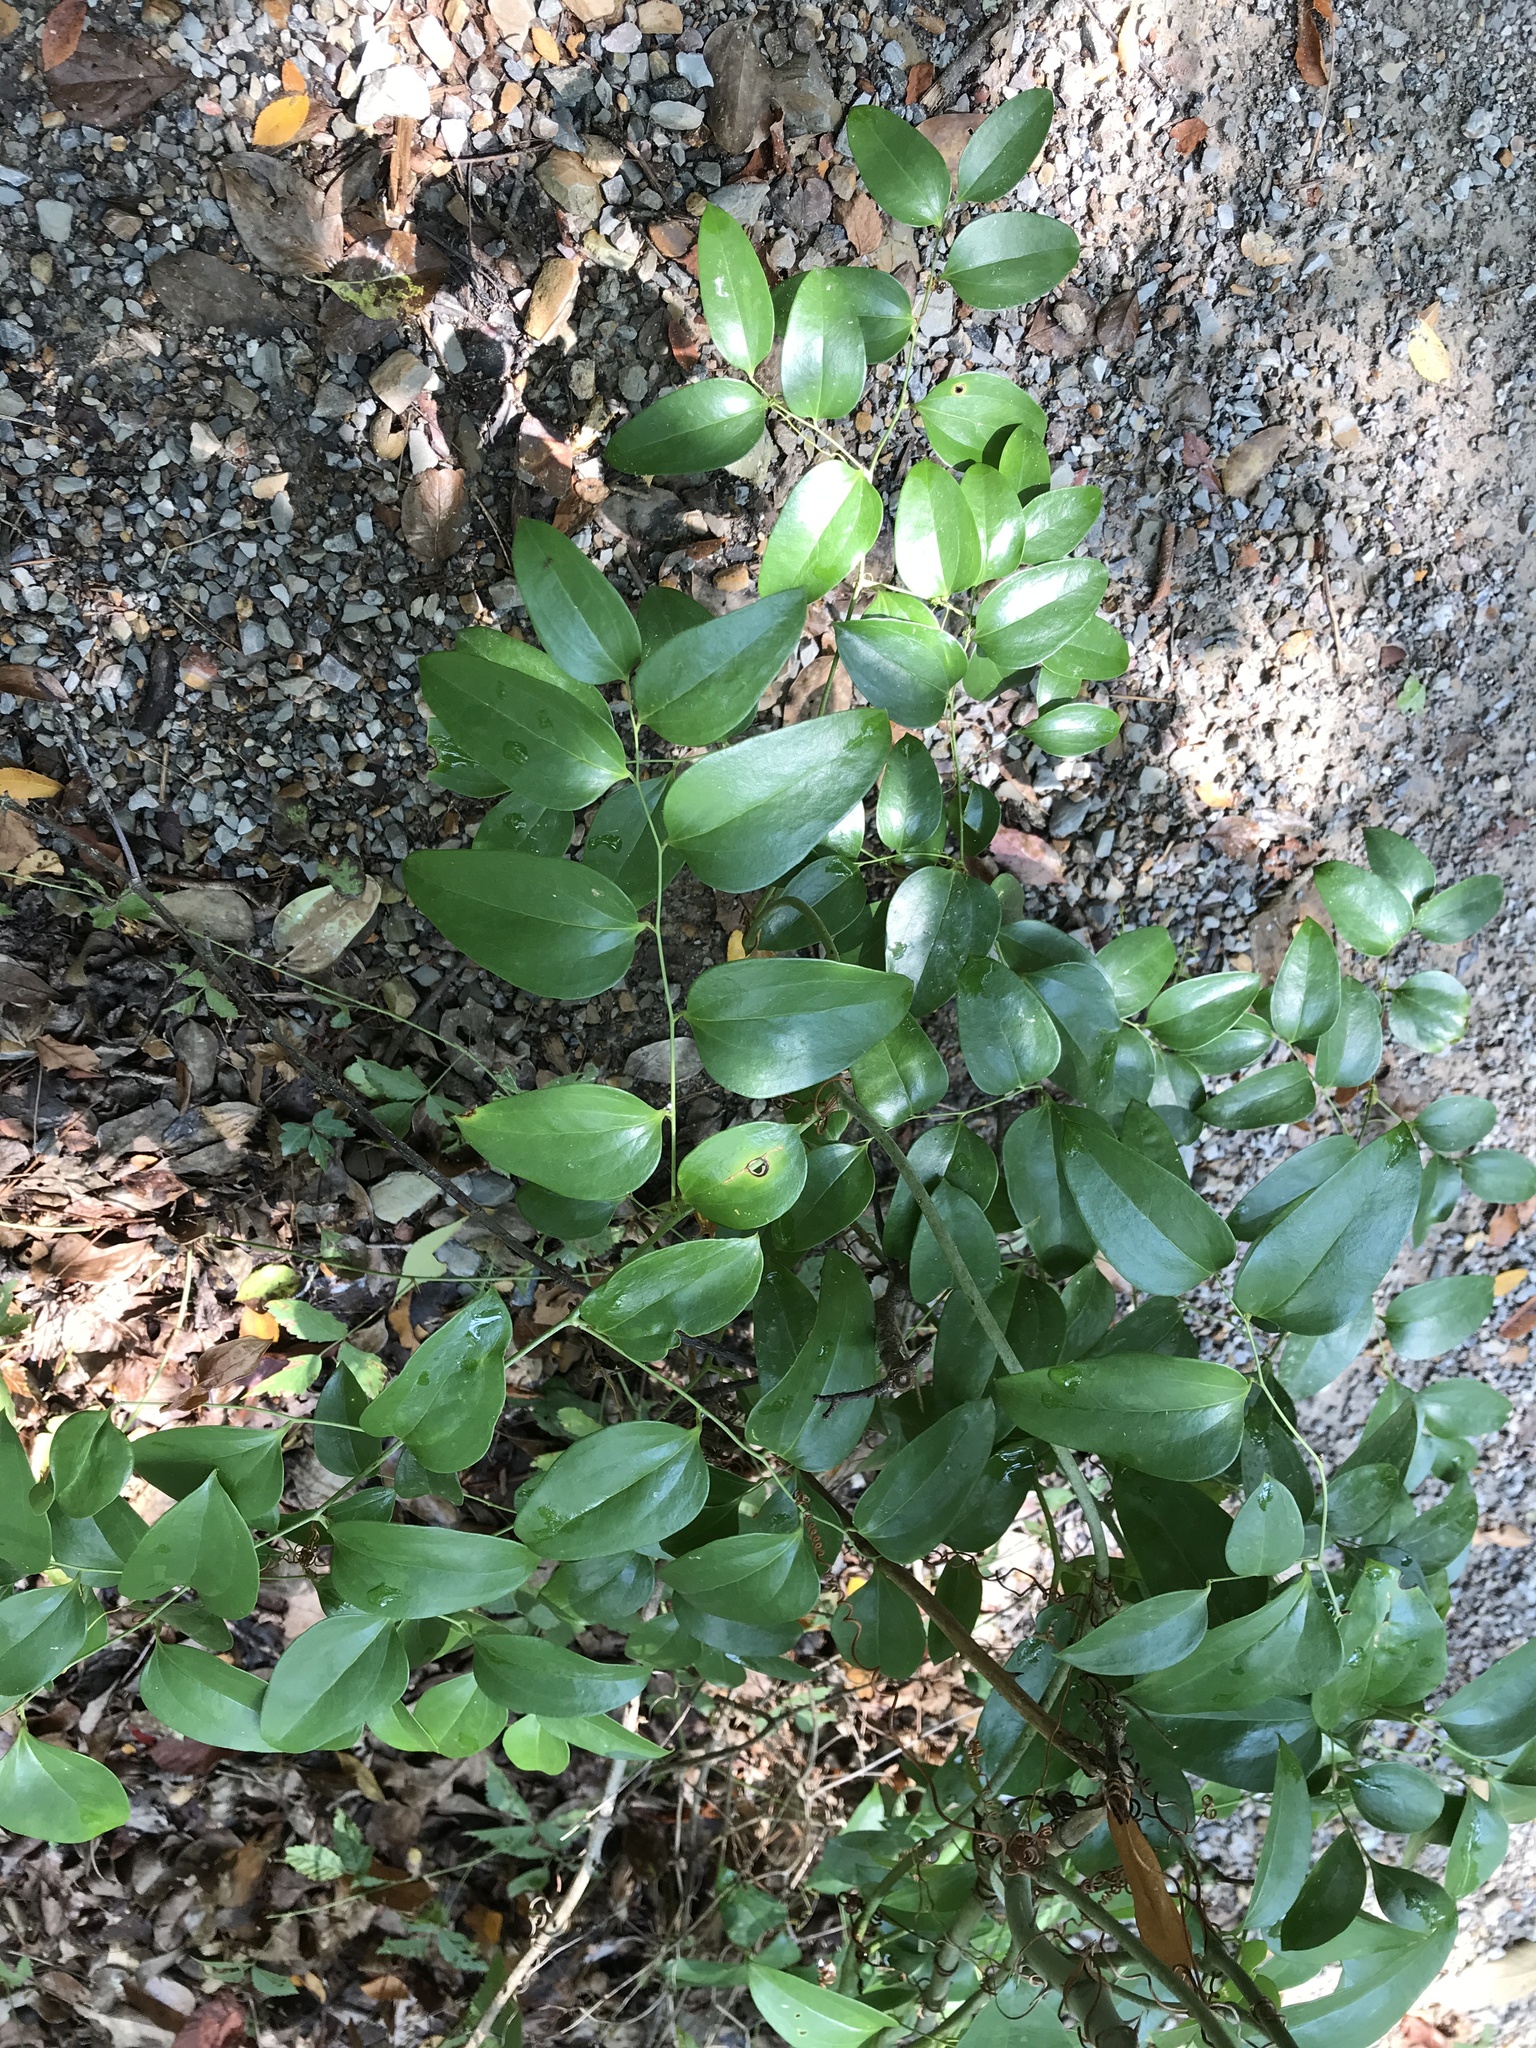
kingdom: Plantae
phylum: Tracheophyta
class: Liliopsida
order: Liliales
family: Smilacaceae
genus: Smilax
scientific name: Smilax maritima
